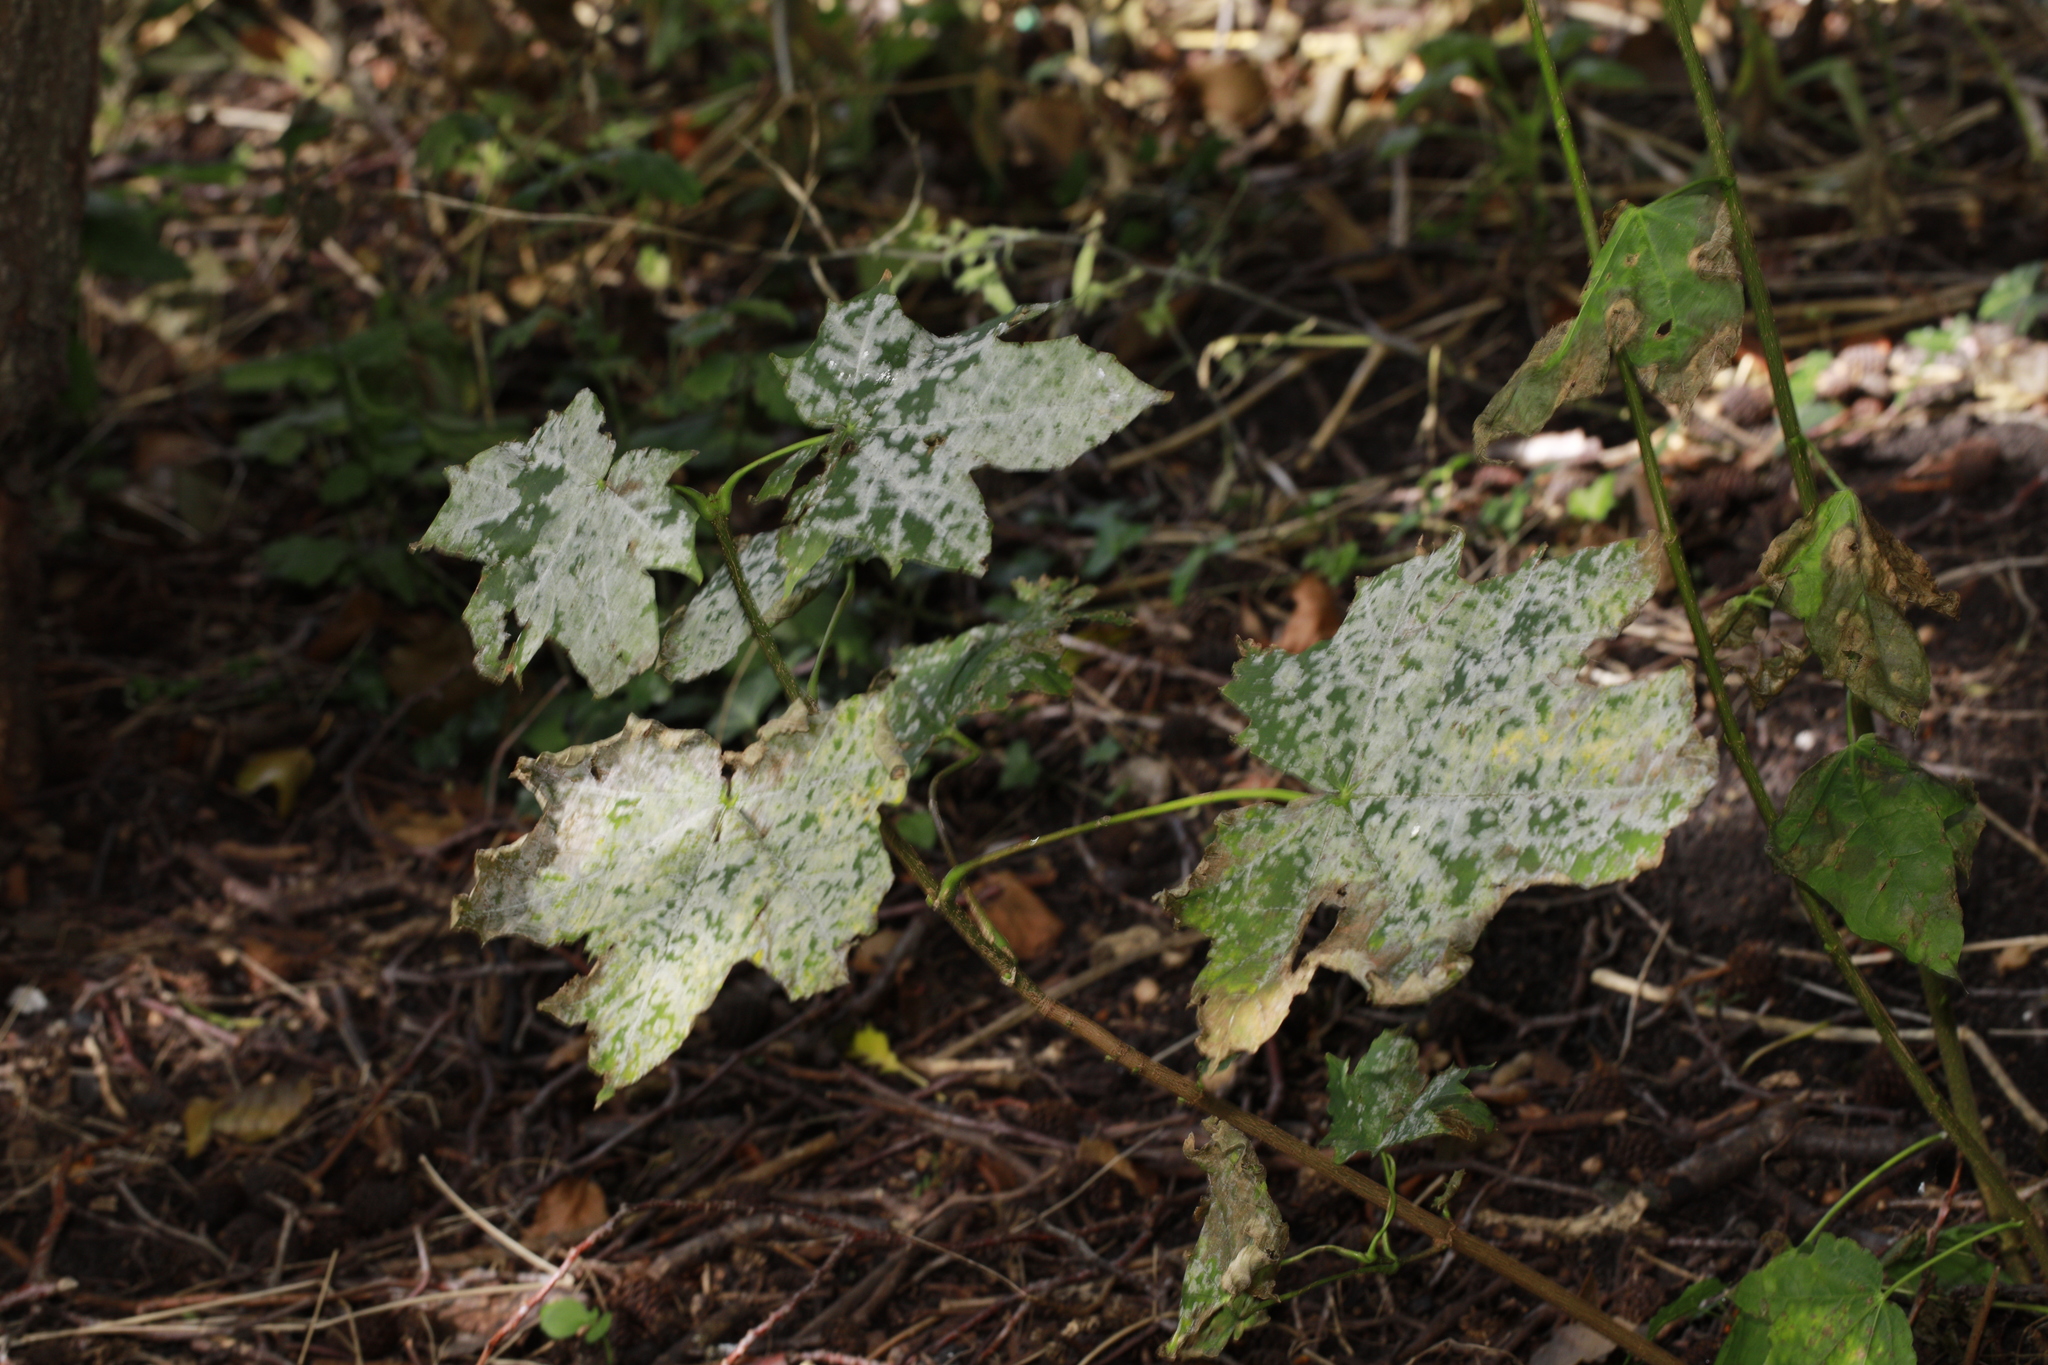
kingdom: Fungi
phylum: Ascomycota
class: Leotiomycetes
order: Helotiales
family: Erysiphaceae
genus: Sawadaea
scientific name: Sawadaea bicornis
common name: Maple mildew
